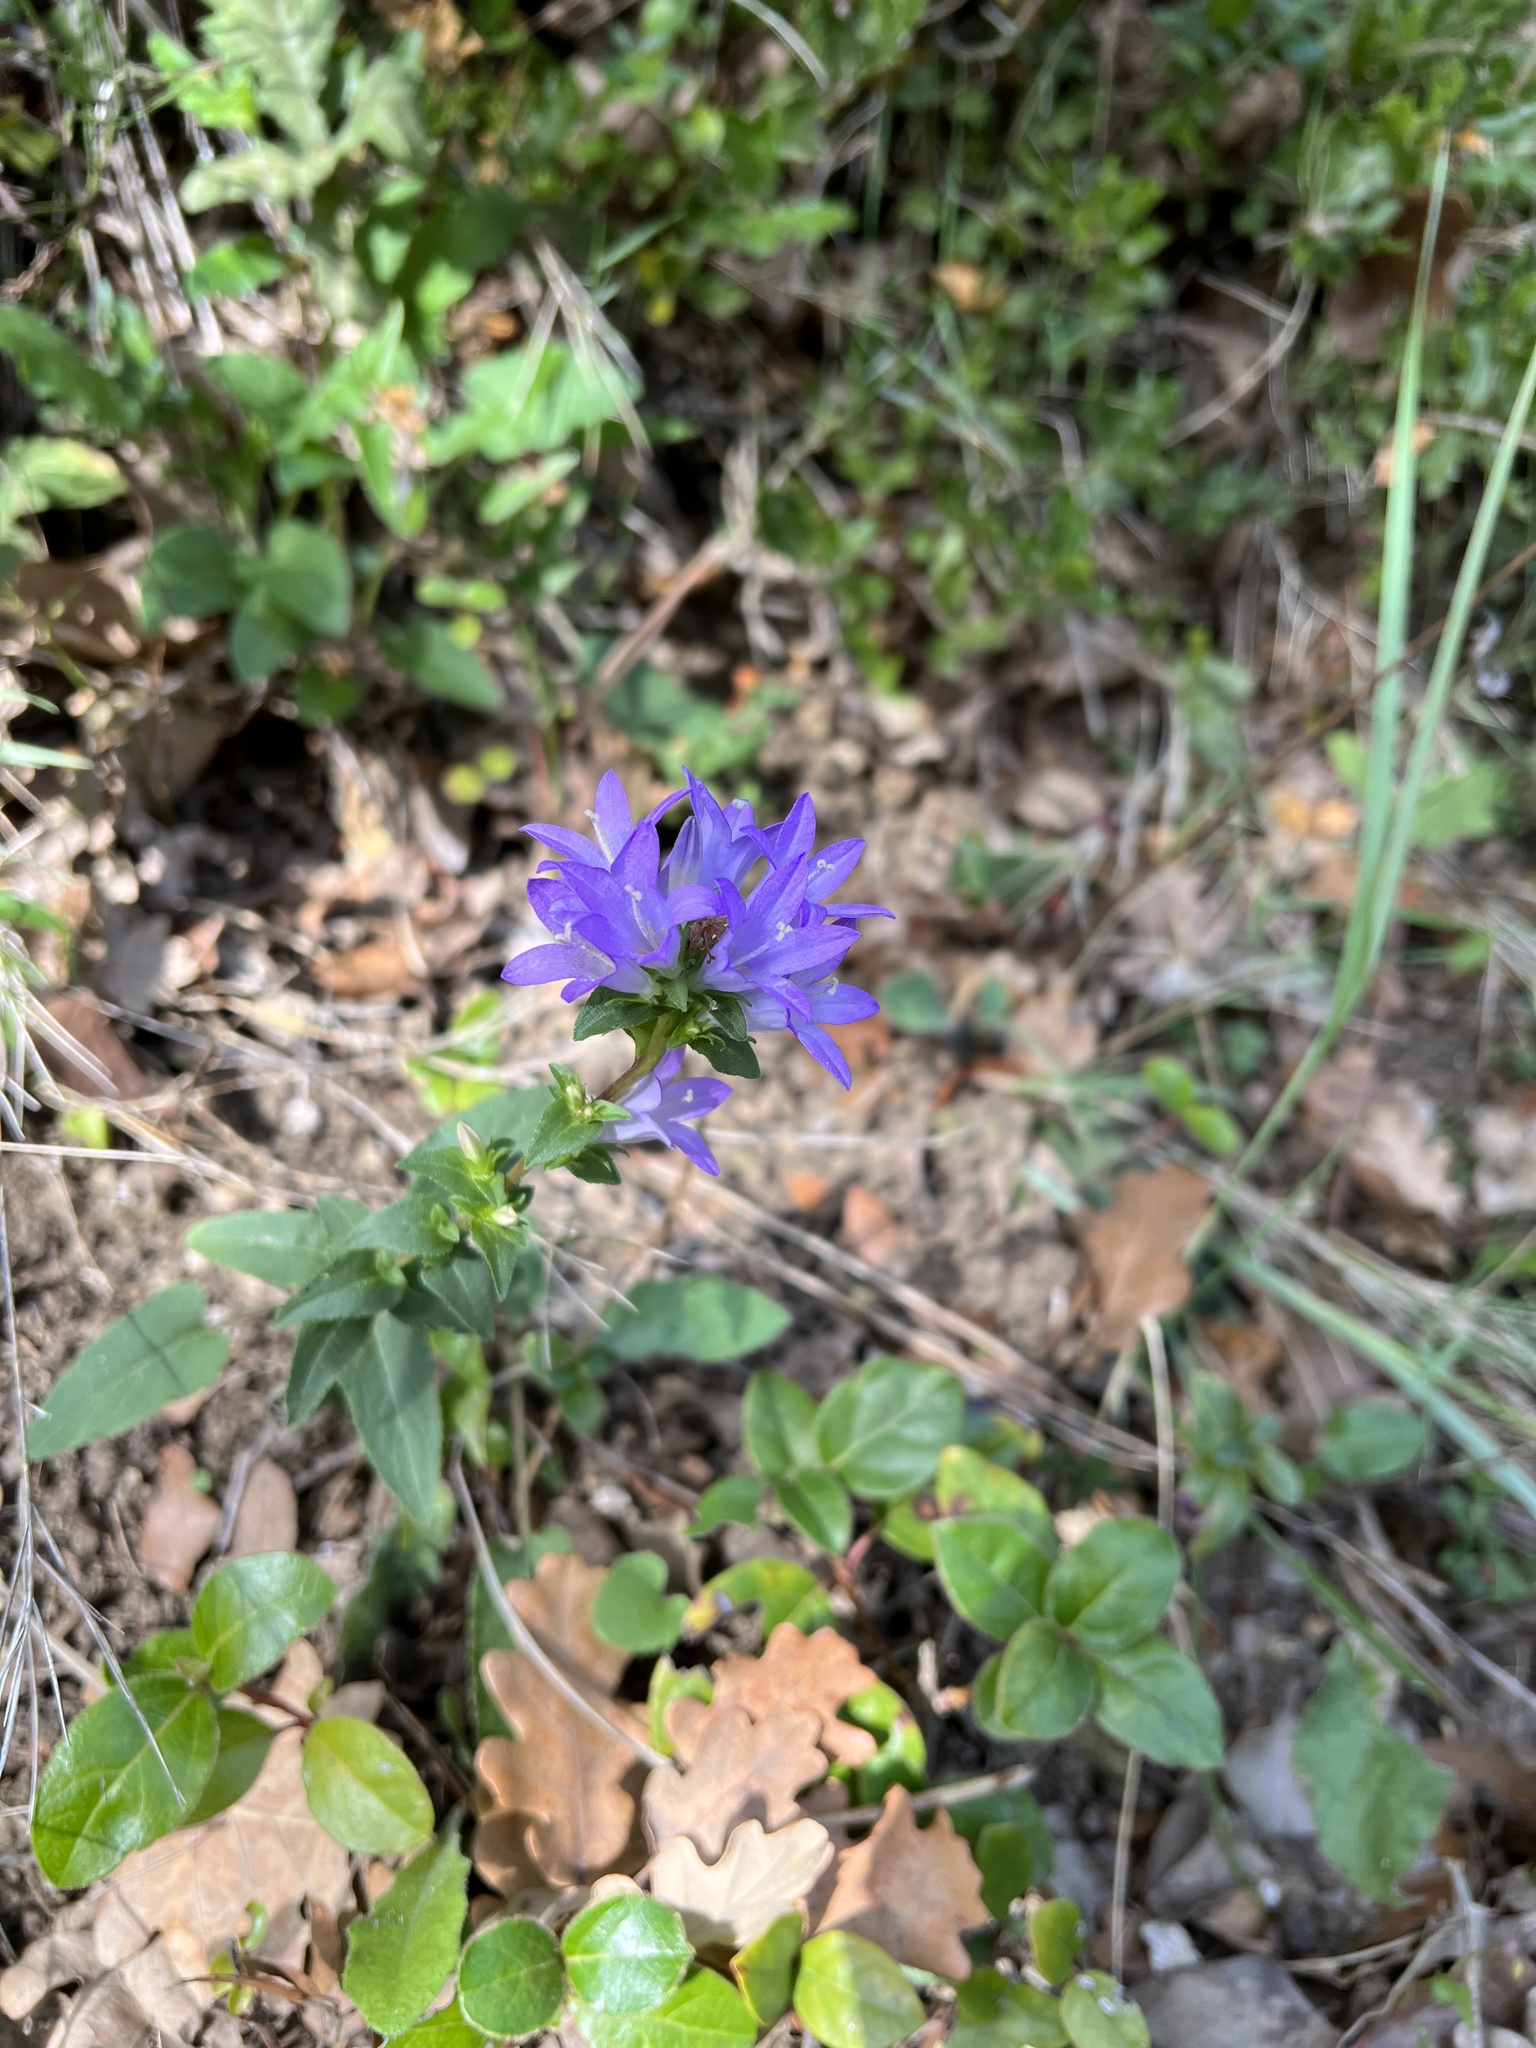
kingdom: Plantae
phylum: Tracheophyta
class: Magnoliopsida
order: Asterales
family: Campanulaceae
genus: Campanula
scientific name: Campanula glomerata
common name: Clustered bellflower
